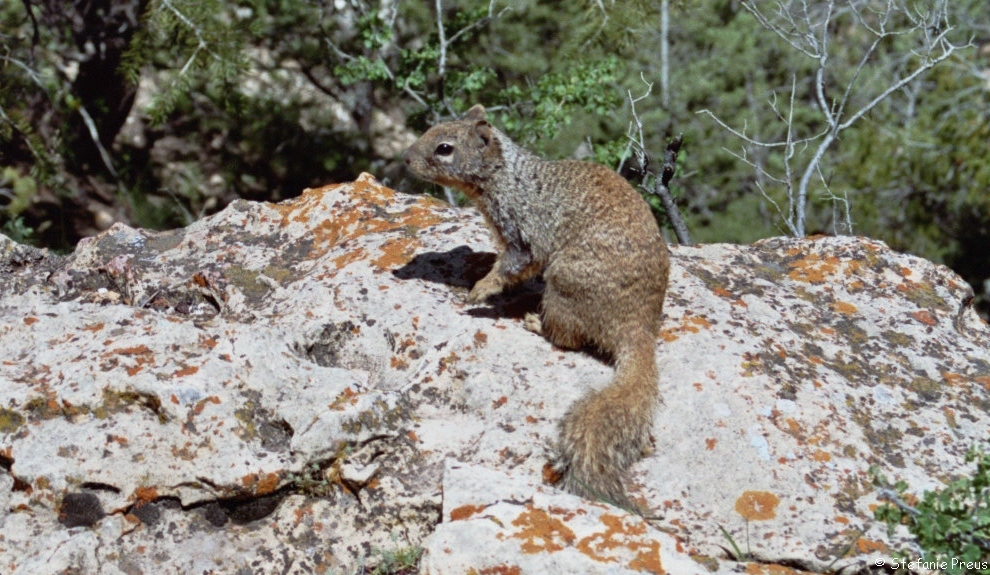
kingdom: Animalia
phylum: Chordata
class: Mammalia
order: Rodentia
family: Sciuridae
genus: Otospermophilus
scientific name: Otospermophilus variegatus
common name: Rock squirrel
